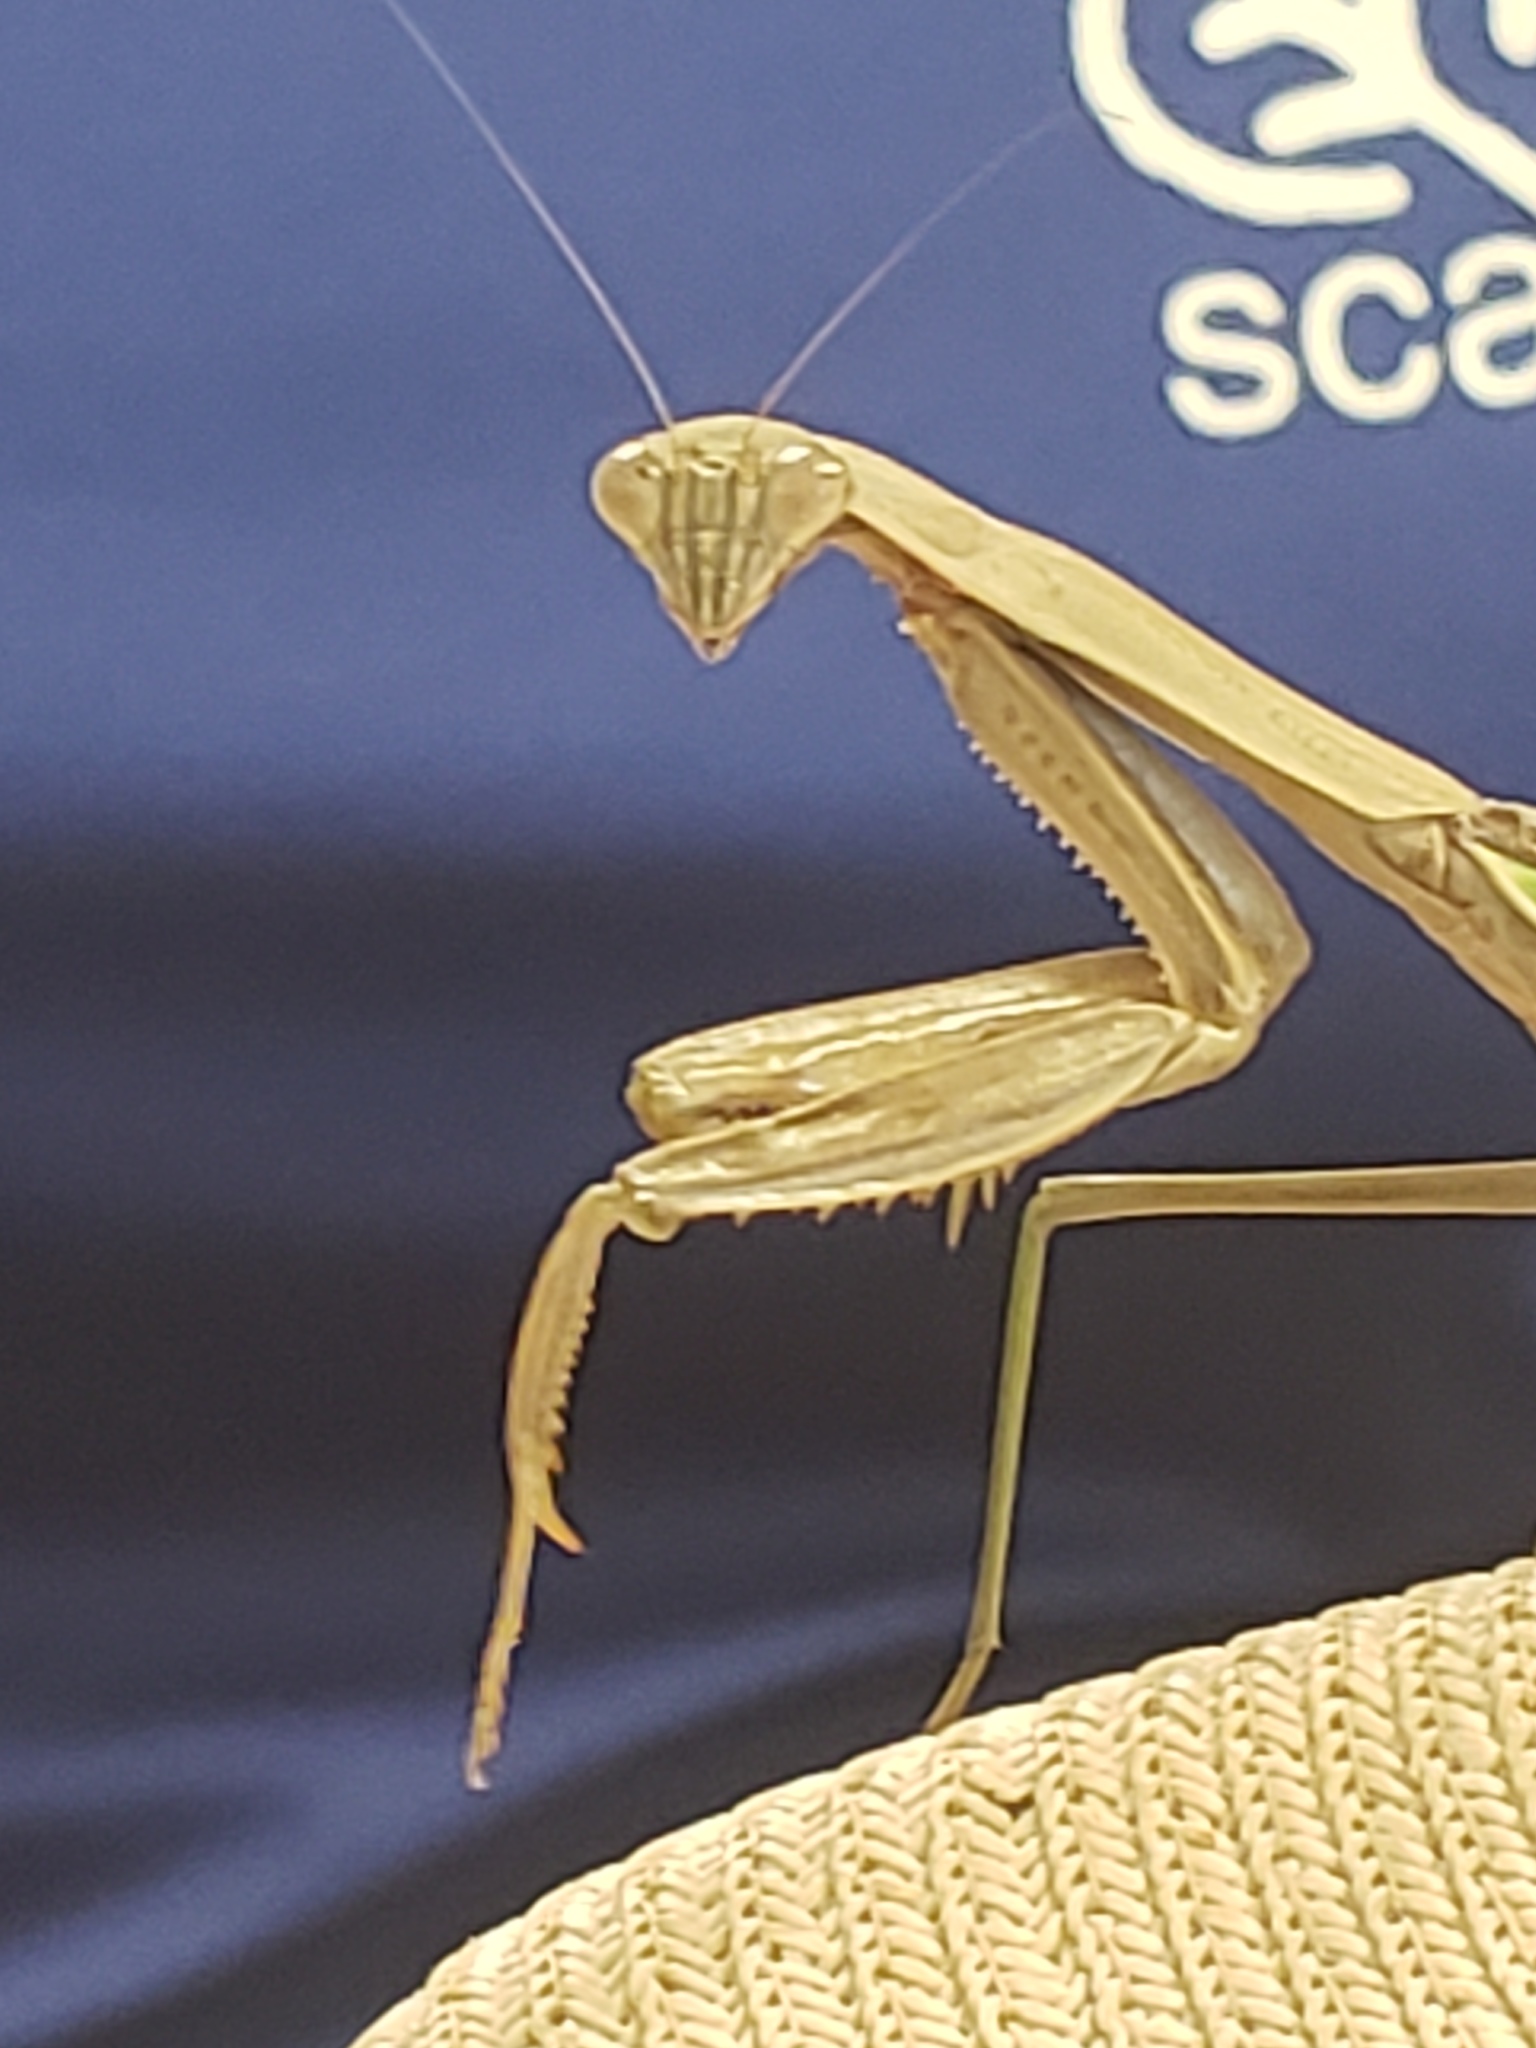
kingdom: Animalia
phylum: Arthropoda
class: Insecta
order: Mantodea
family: Mantidae
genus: Tenodera
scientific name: Tenodera sinensis
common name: Chinese mantis
